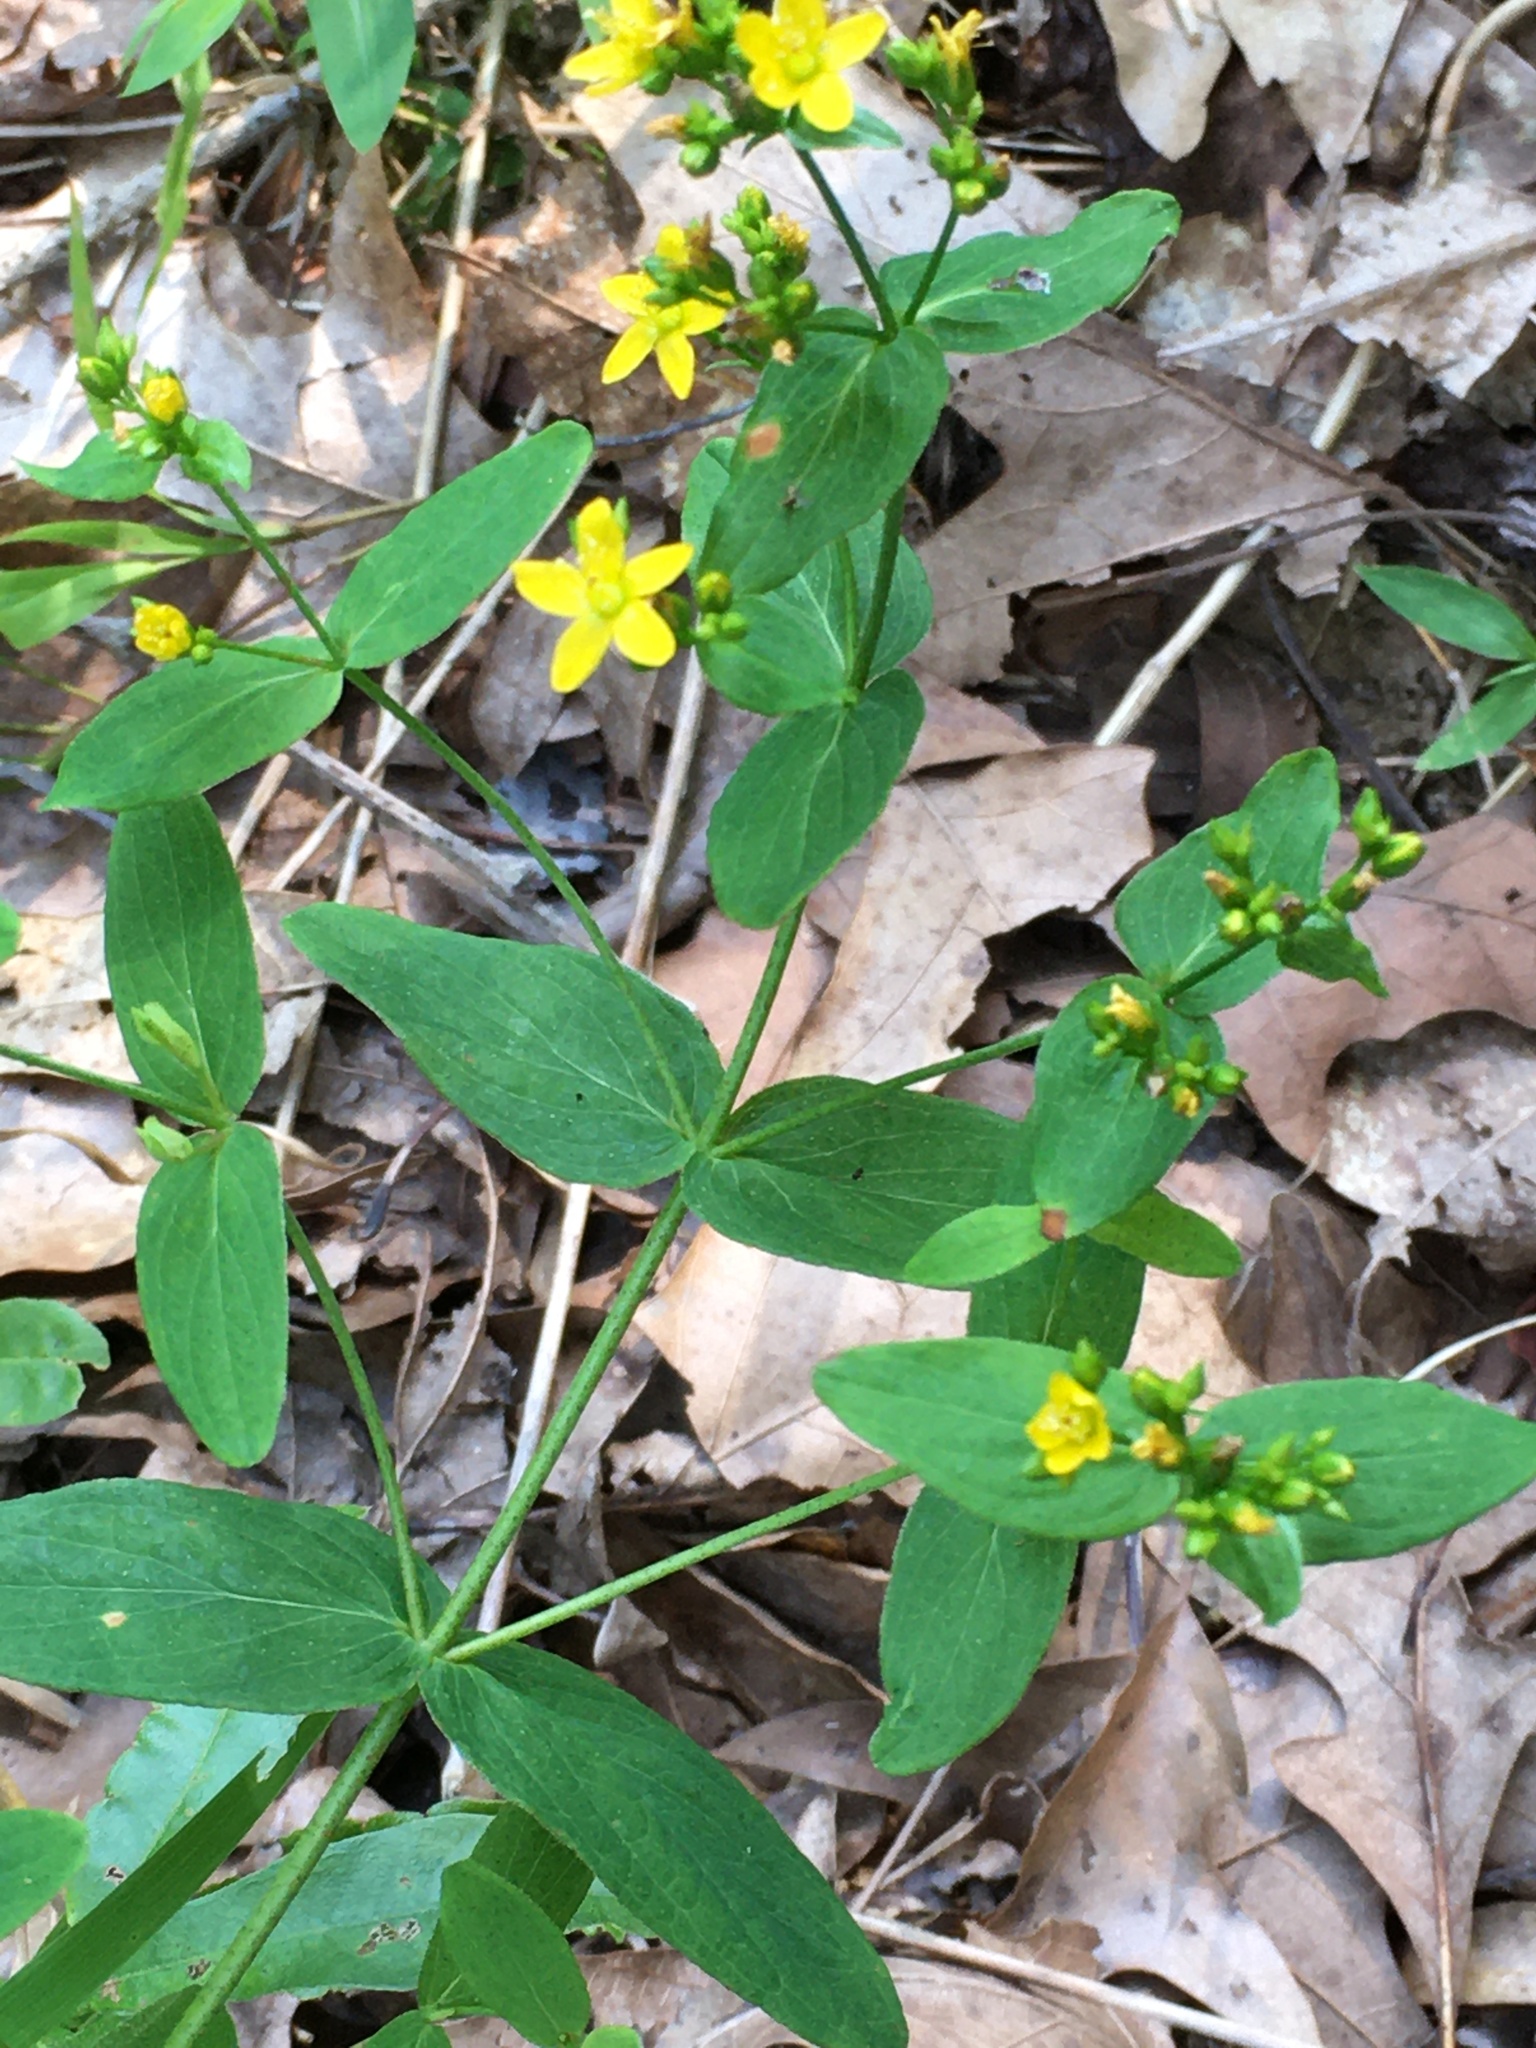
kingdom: Plantae
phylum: Tracheophyta
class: Magnoliopsida
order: Malpighiales
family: Hypericaceae
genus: Hypericum
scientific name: Hypericum punctatum
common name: Spotted st. john's-wort
